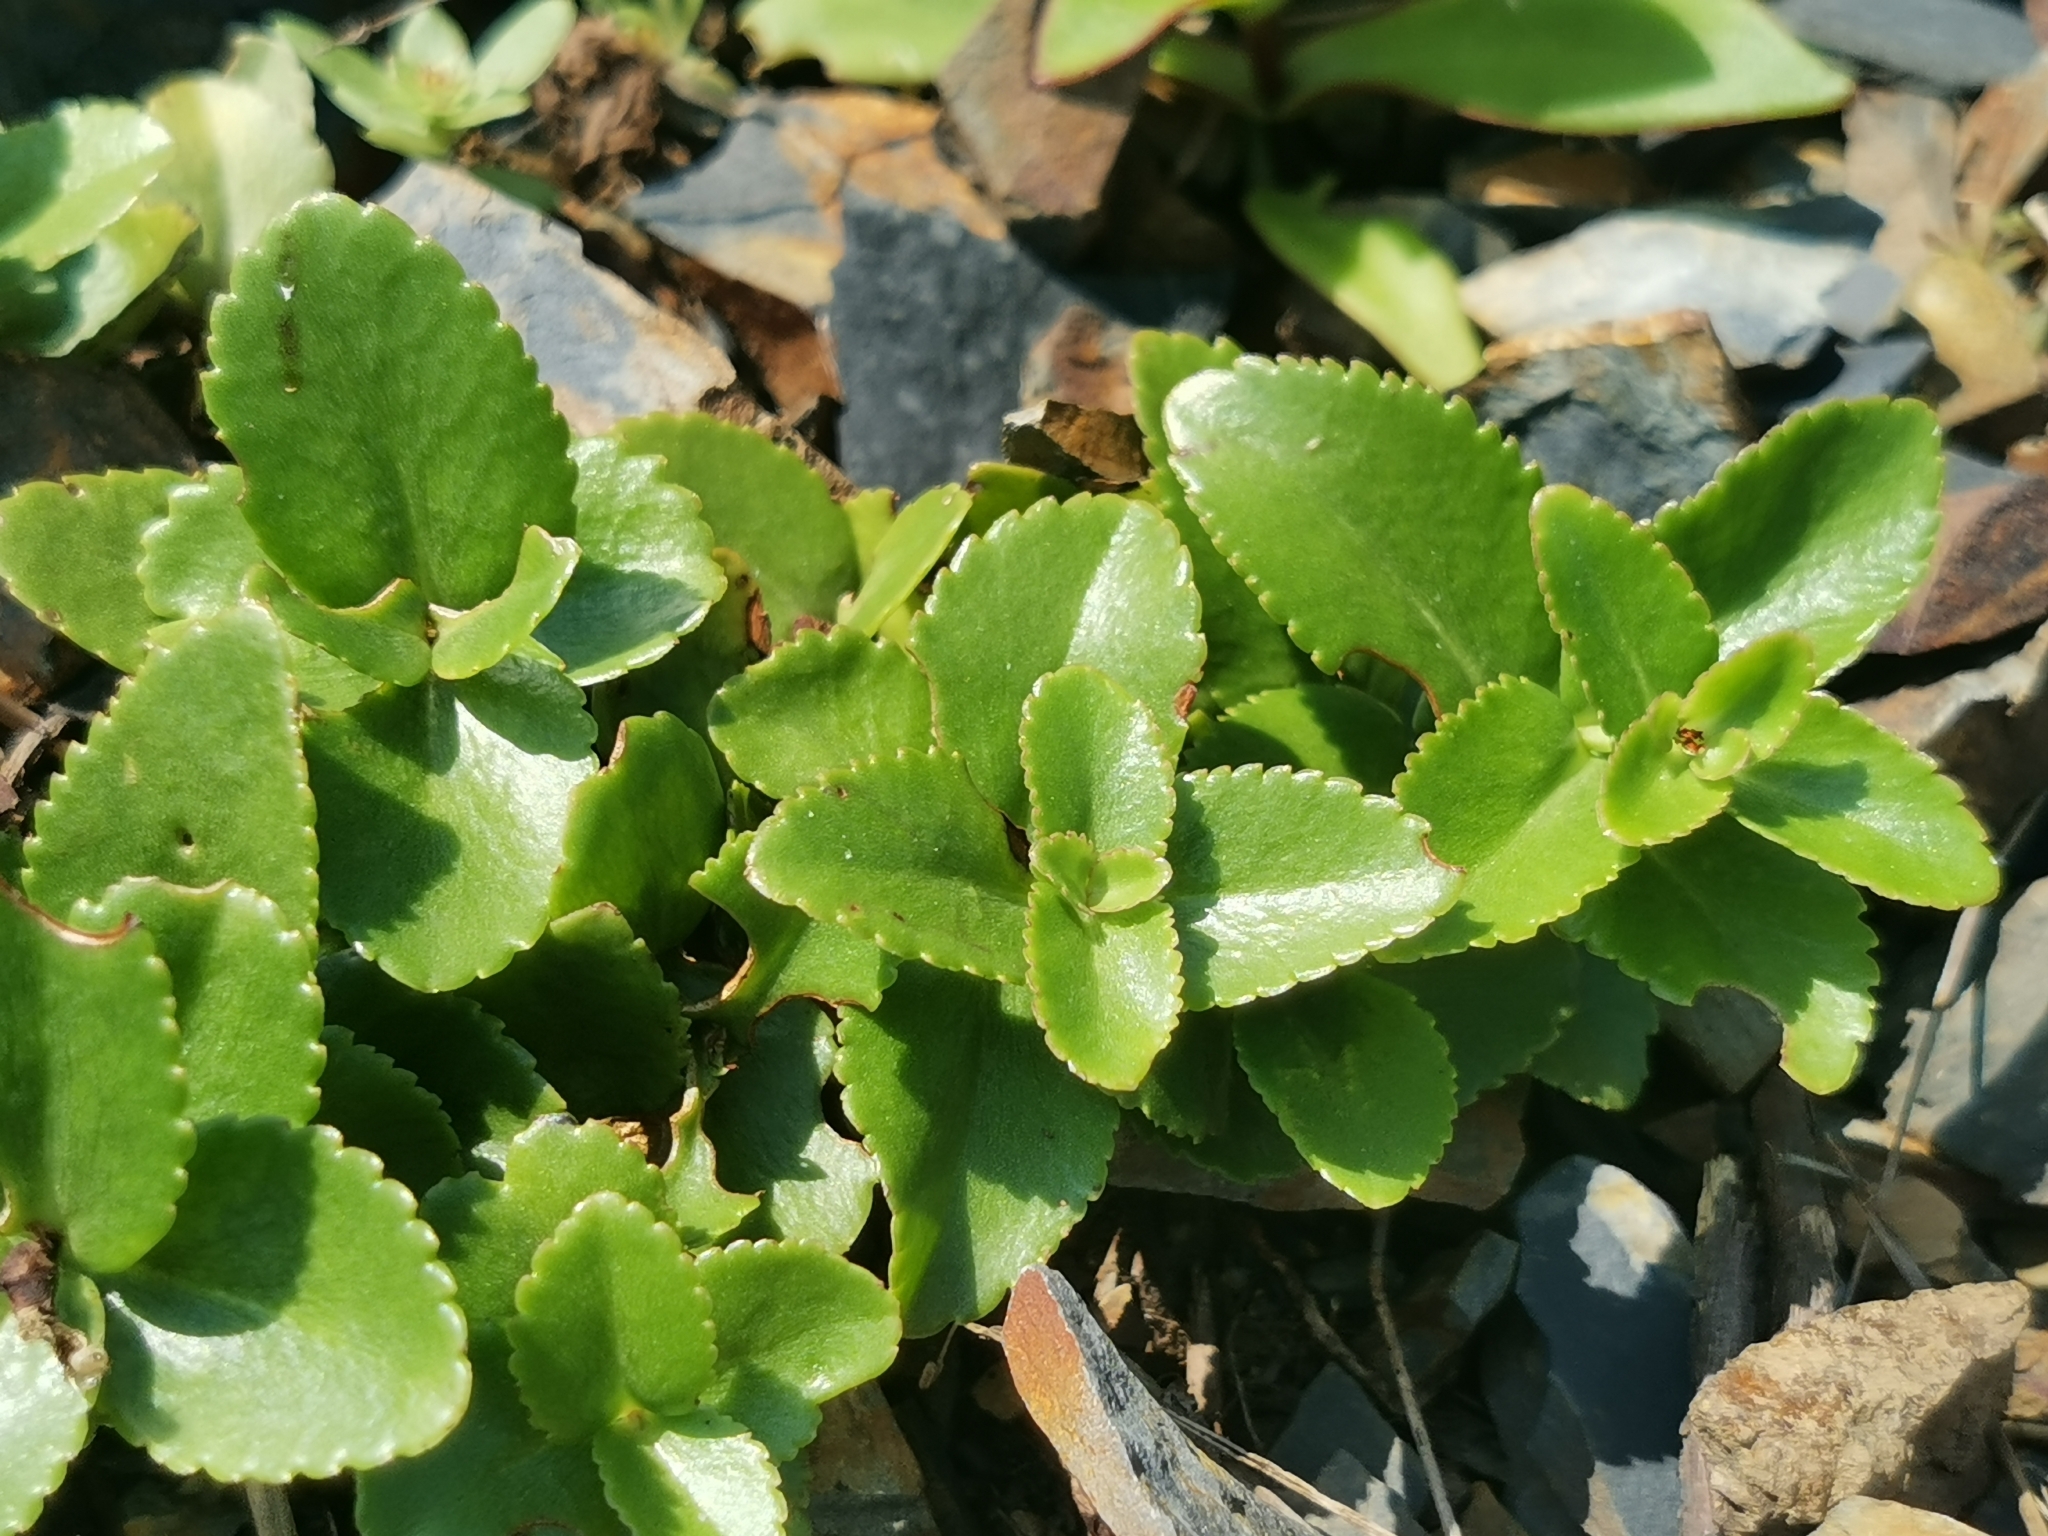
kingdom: Plantae
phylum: Tracheophyta
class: Magnoliopsida
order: Saxifragales
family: Crassulaceae
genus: Phedimus
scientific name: Phedimus litoralis
